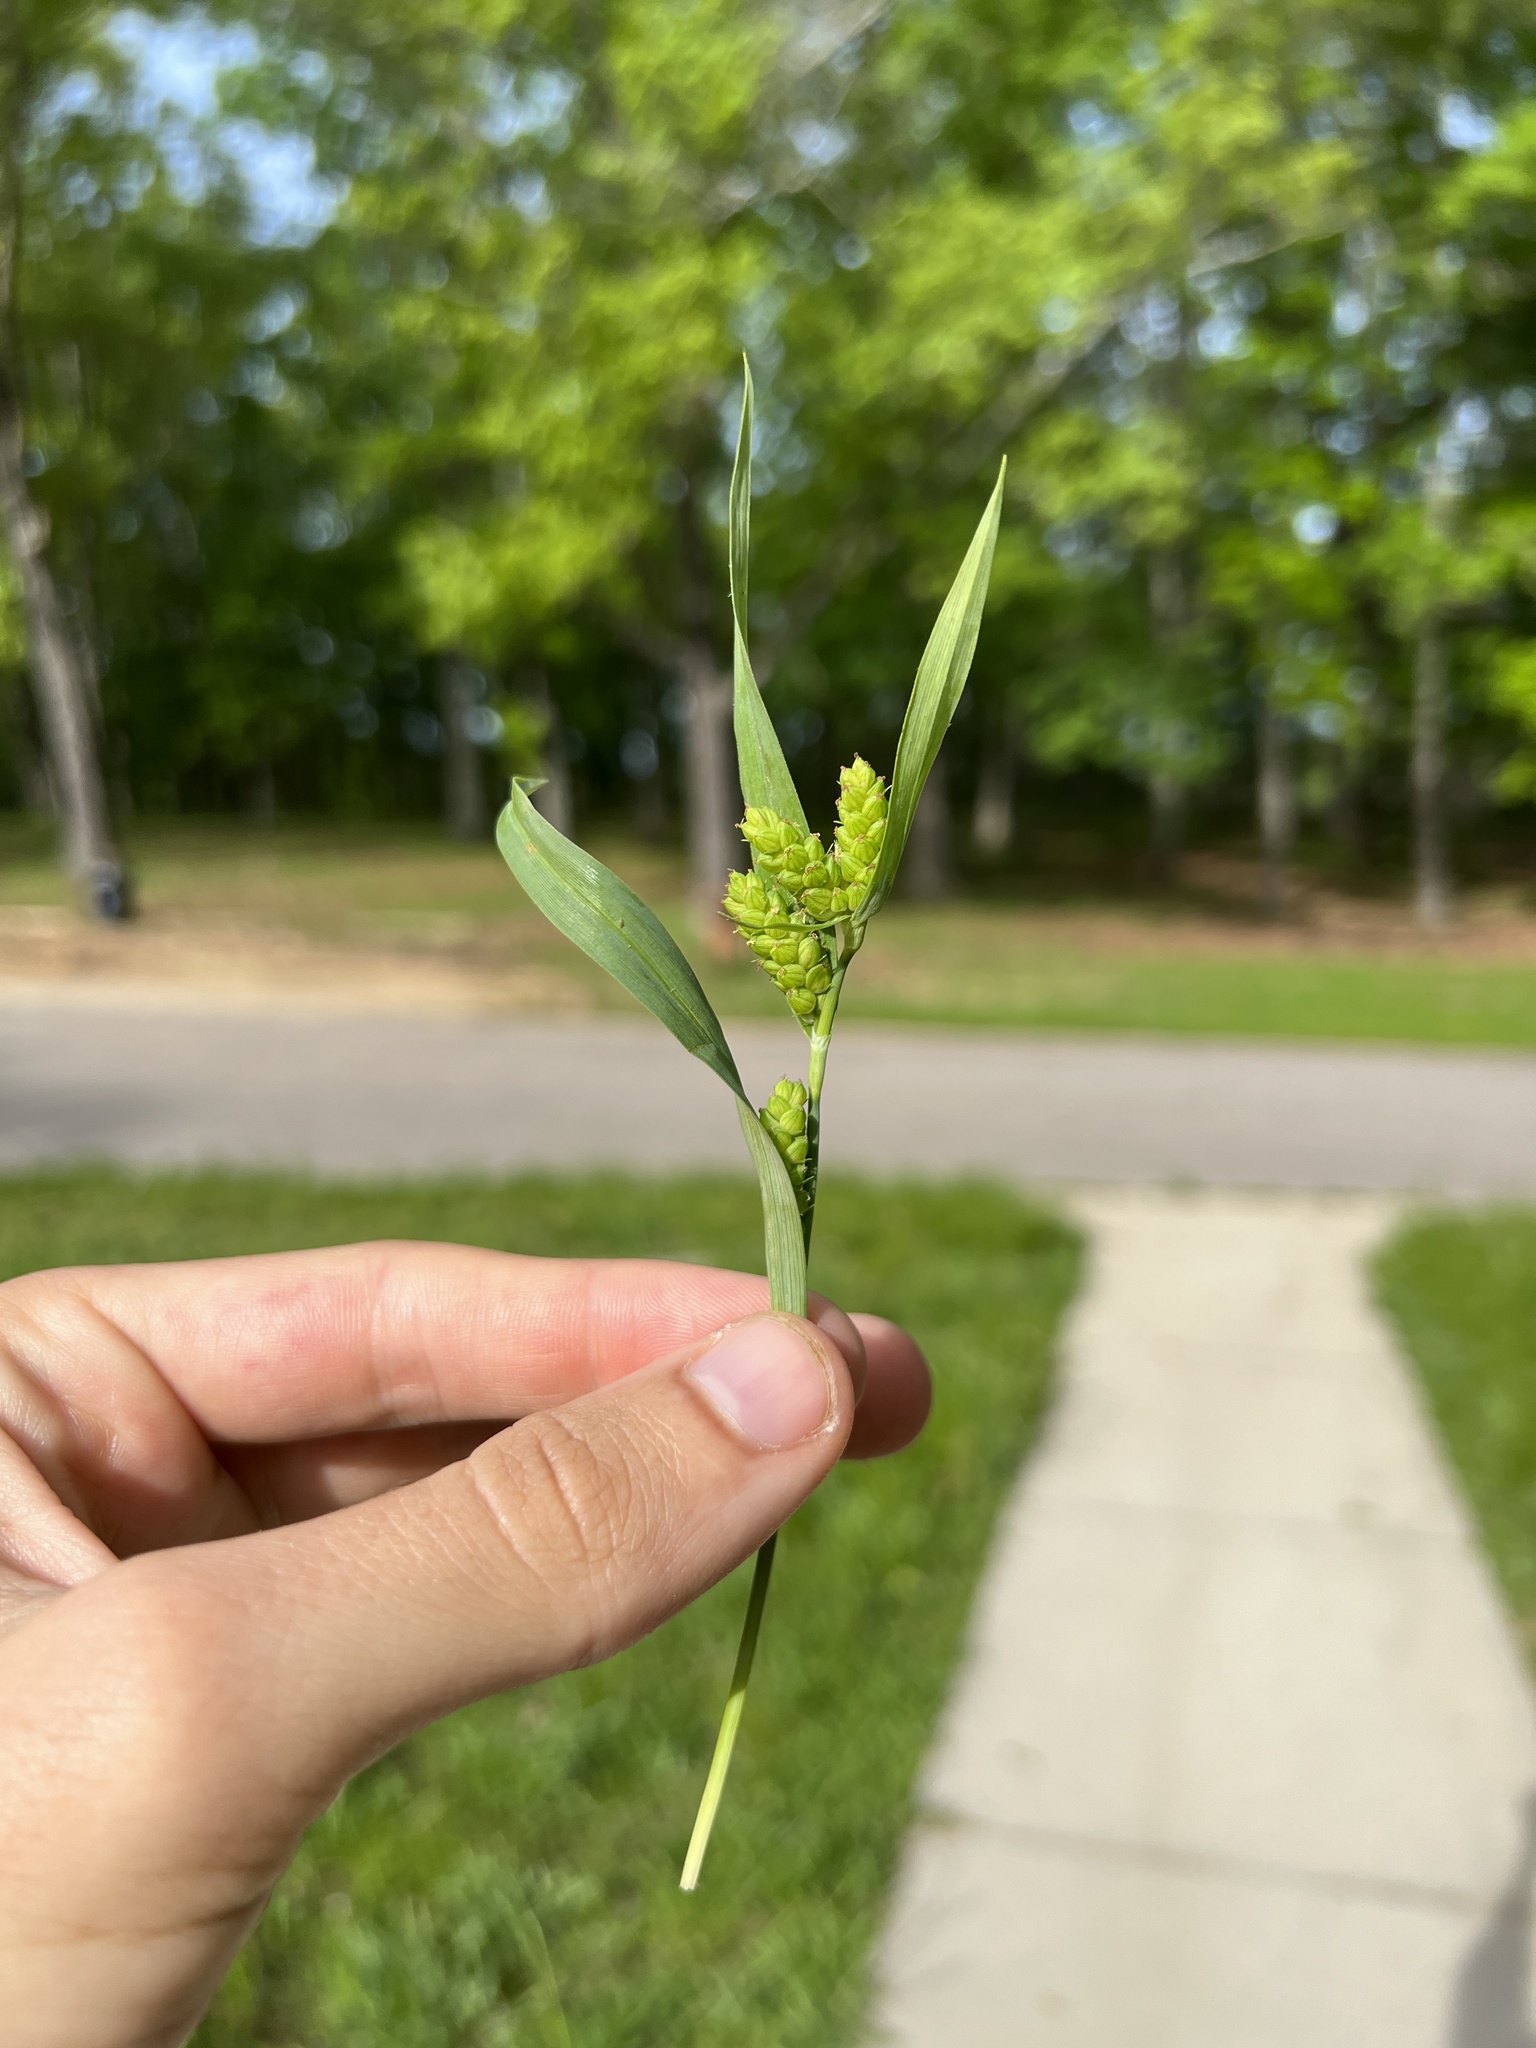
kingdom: Plantae
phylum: Tracheophyta
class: Liliopsida
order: Poales
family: Cyperaceae
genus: Carex
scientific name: Carex glaucodea
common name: Blue sedge
